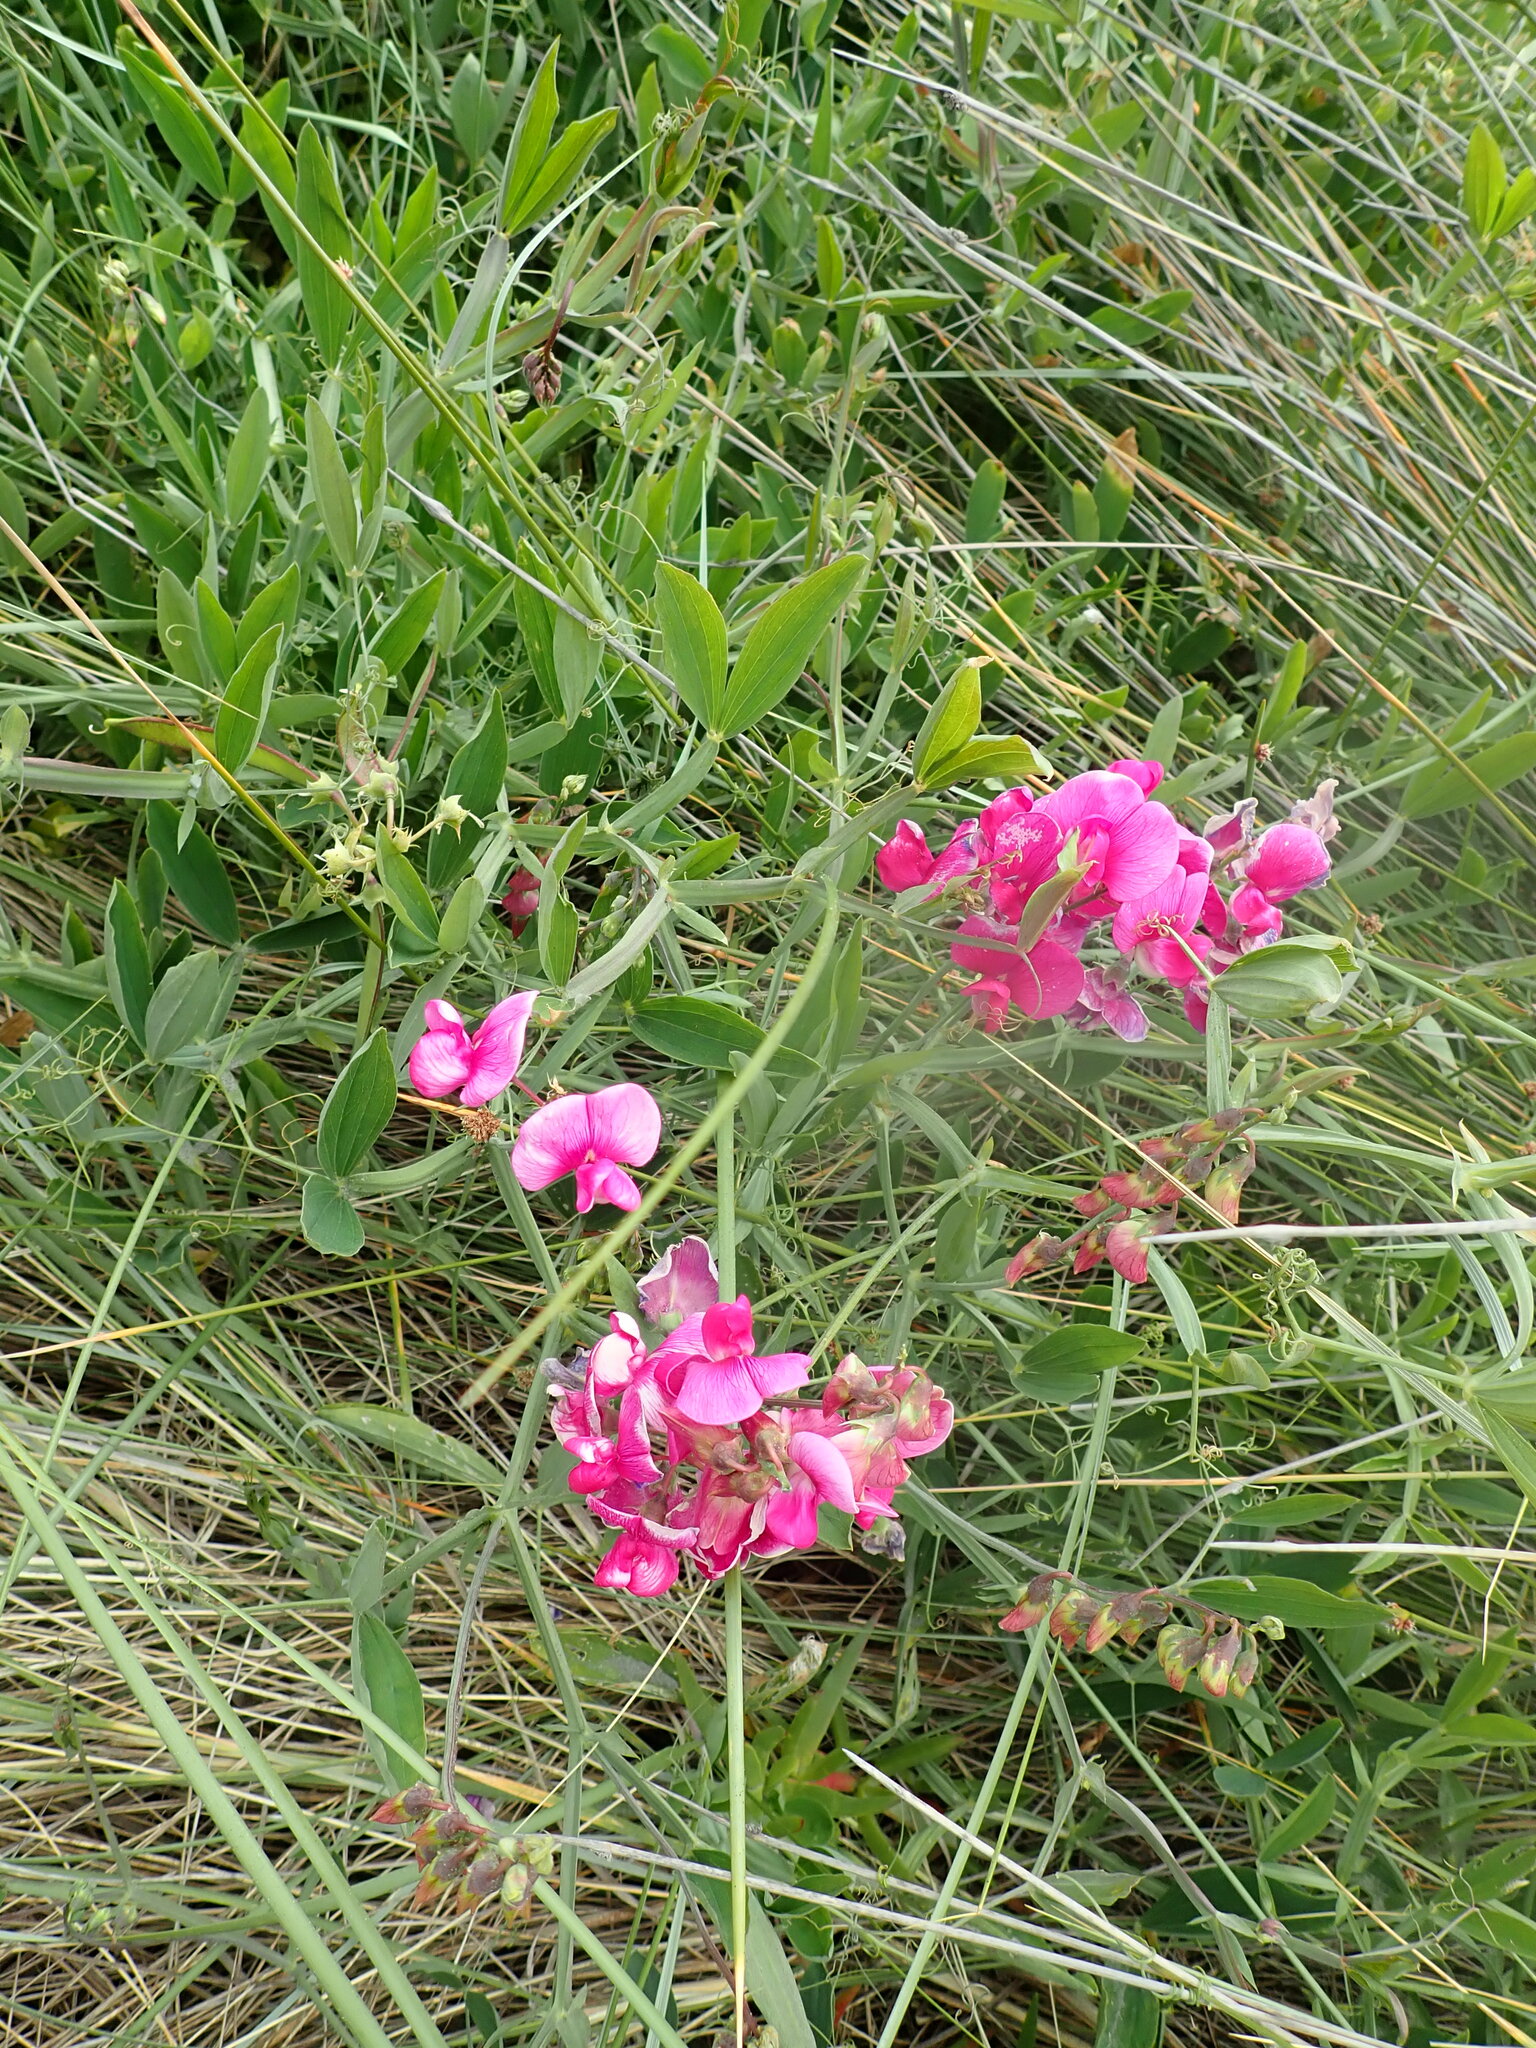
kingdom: Plantae
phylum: Tracheophyta
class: Magnoliopsida
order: Fabales
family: Fabaceae
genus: Lathyrus
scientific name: Lathyrus latifolius
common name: Perennial pea
